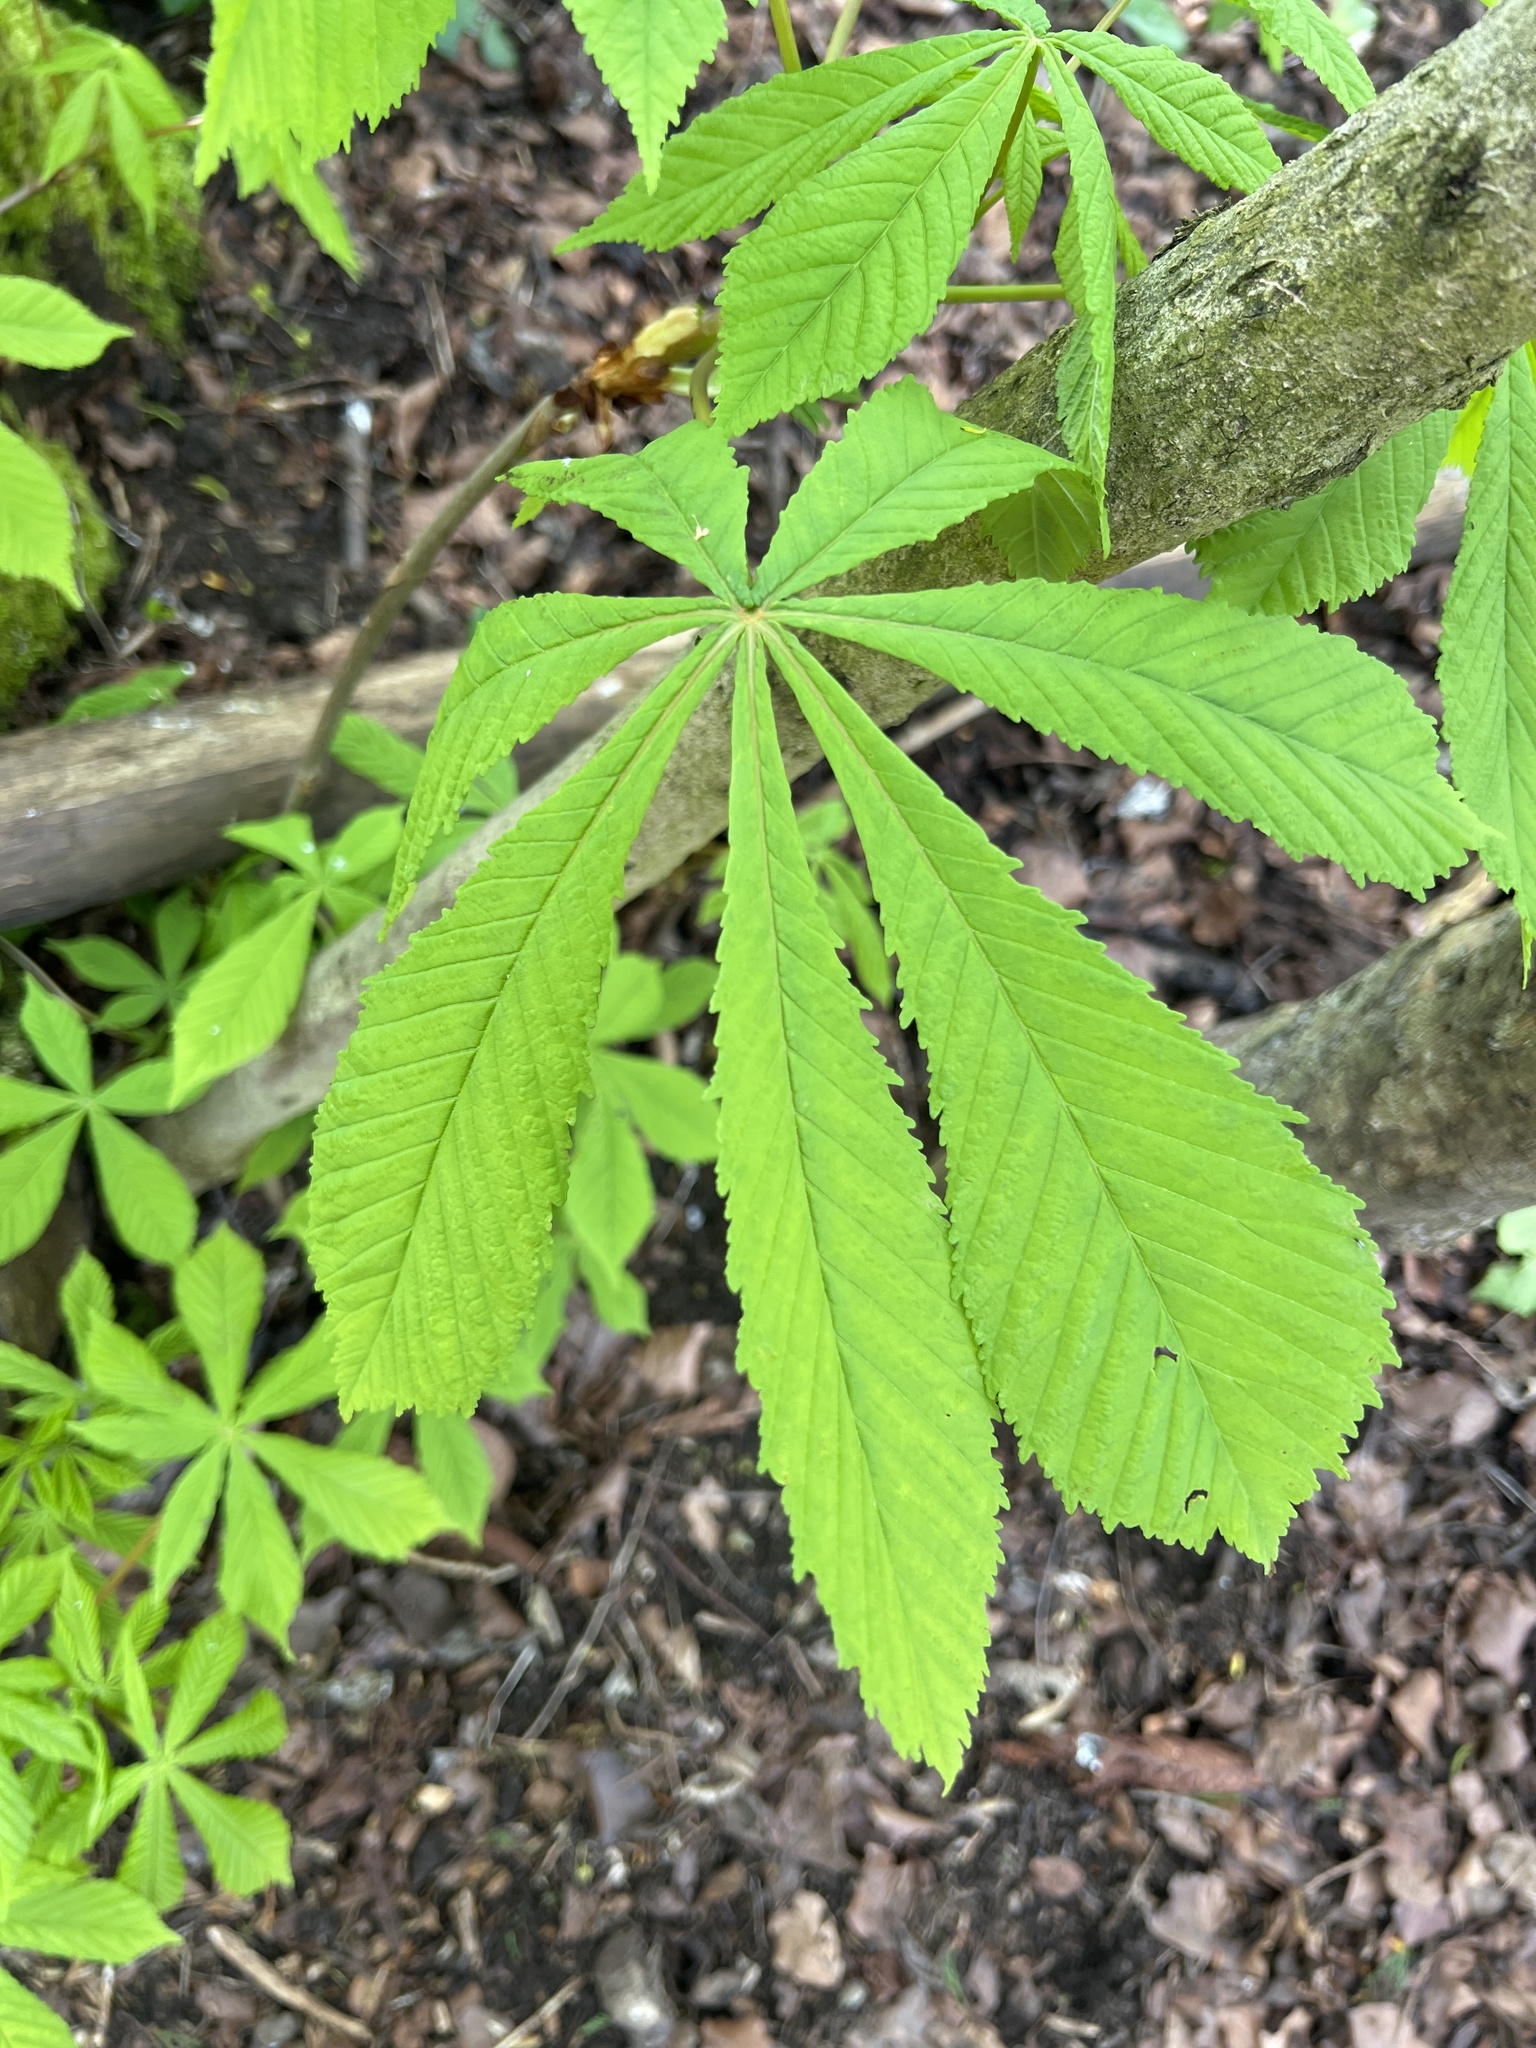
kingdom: Plantae
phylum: Tracheophyta
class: Magnoliopsida
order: Sapindales
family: Sapindaceae
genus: Aesculus
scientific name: Aesculus hippocastanum
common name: Horse-chestnut
